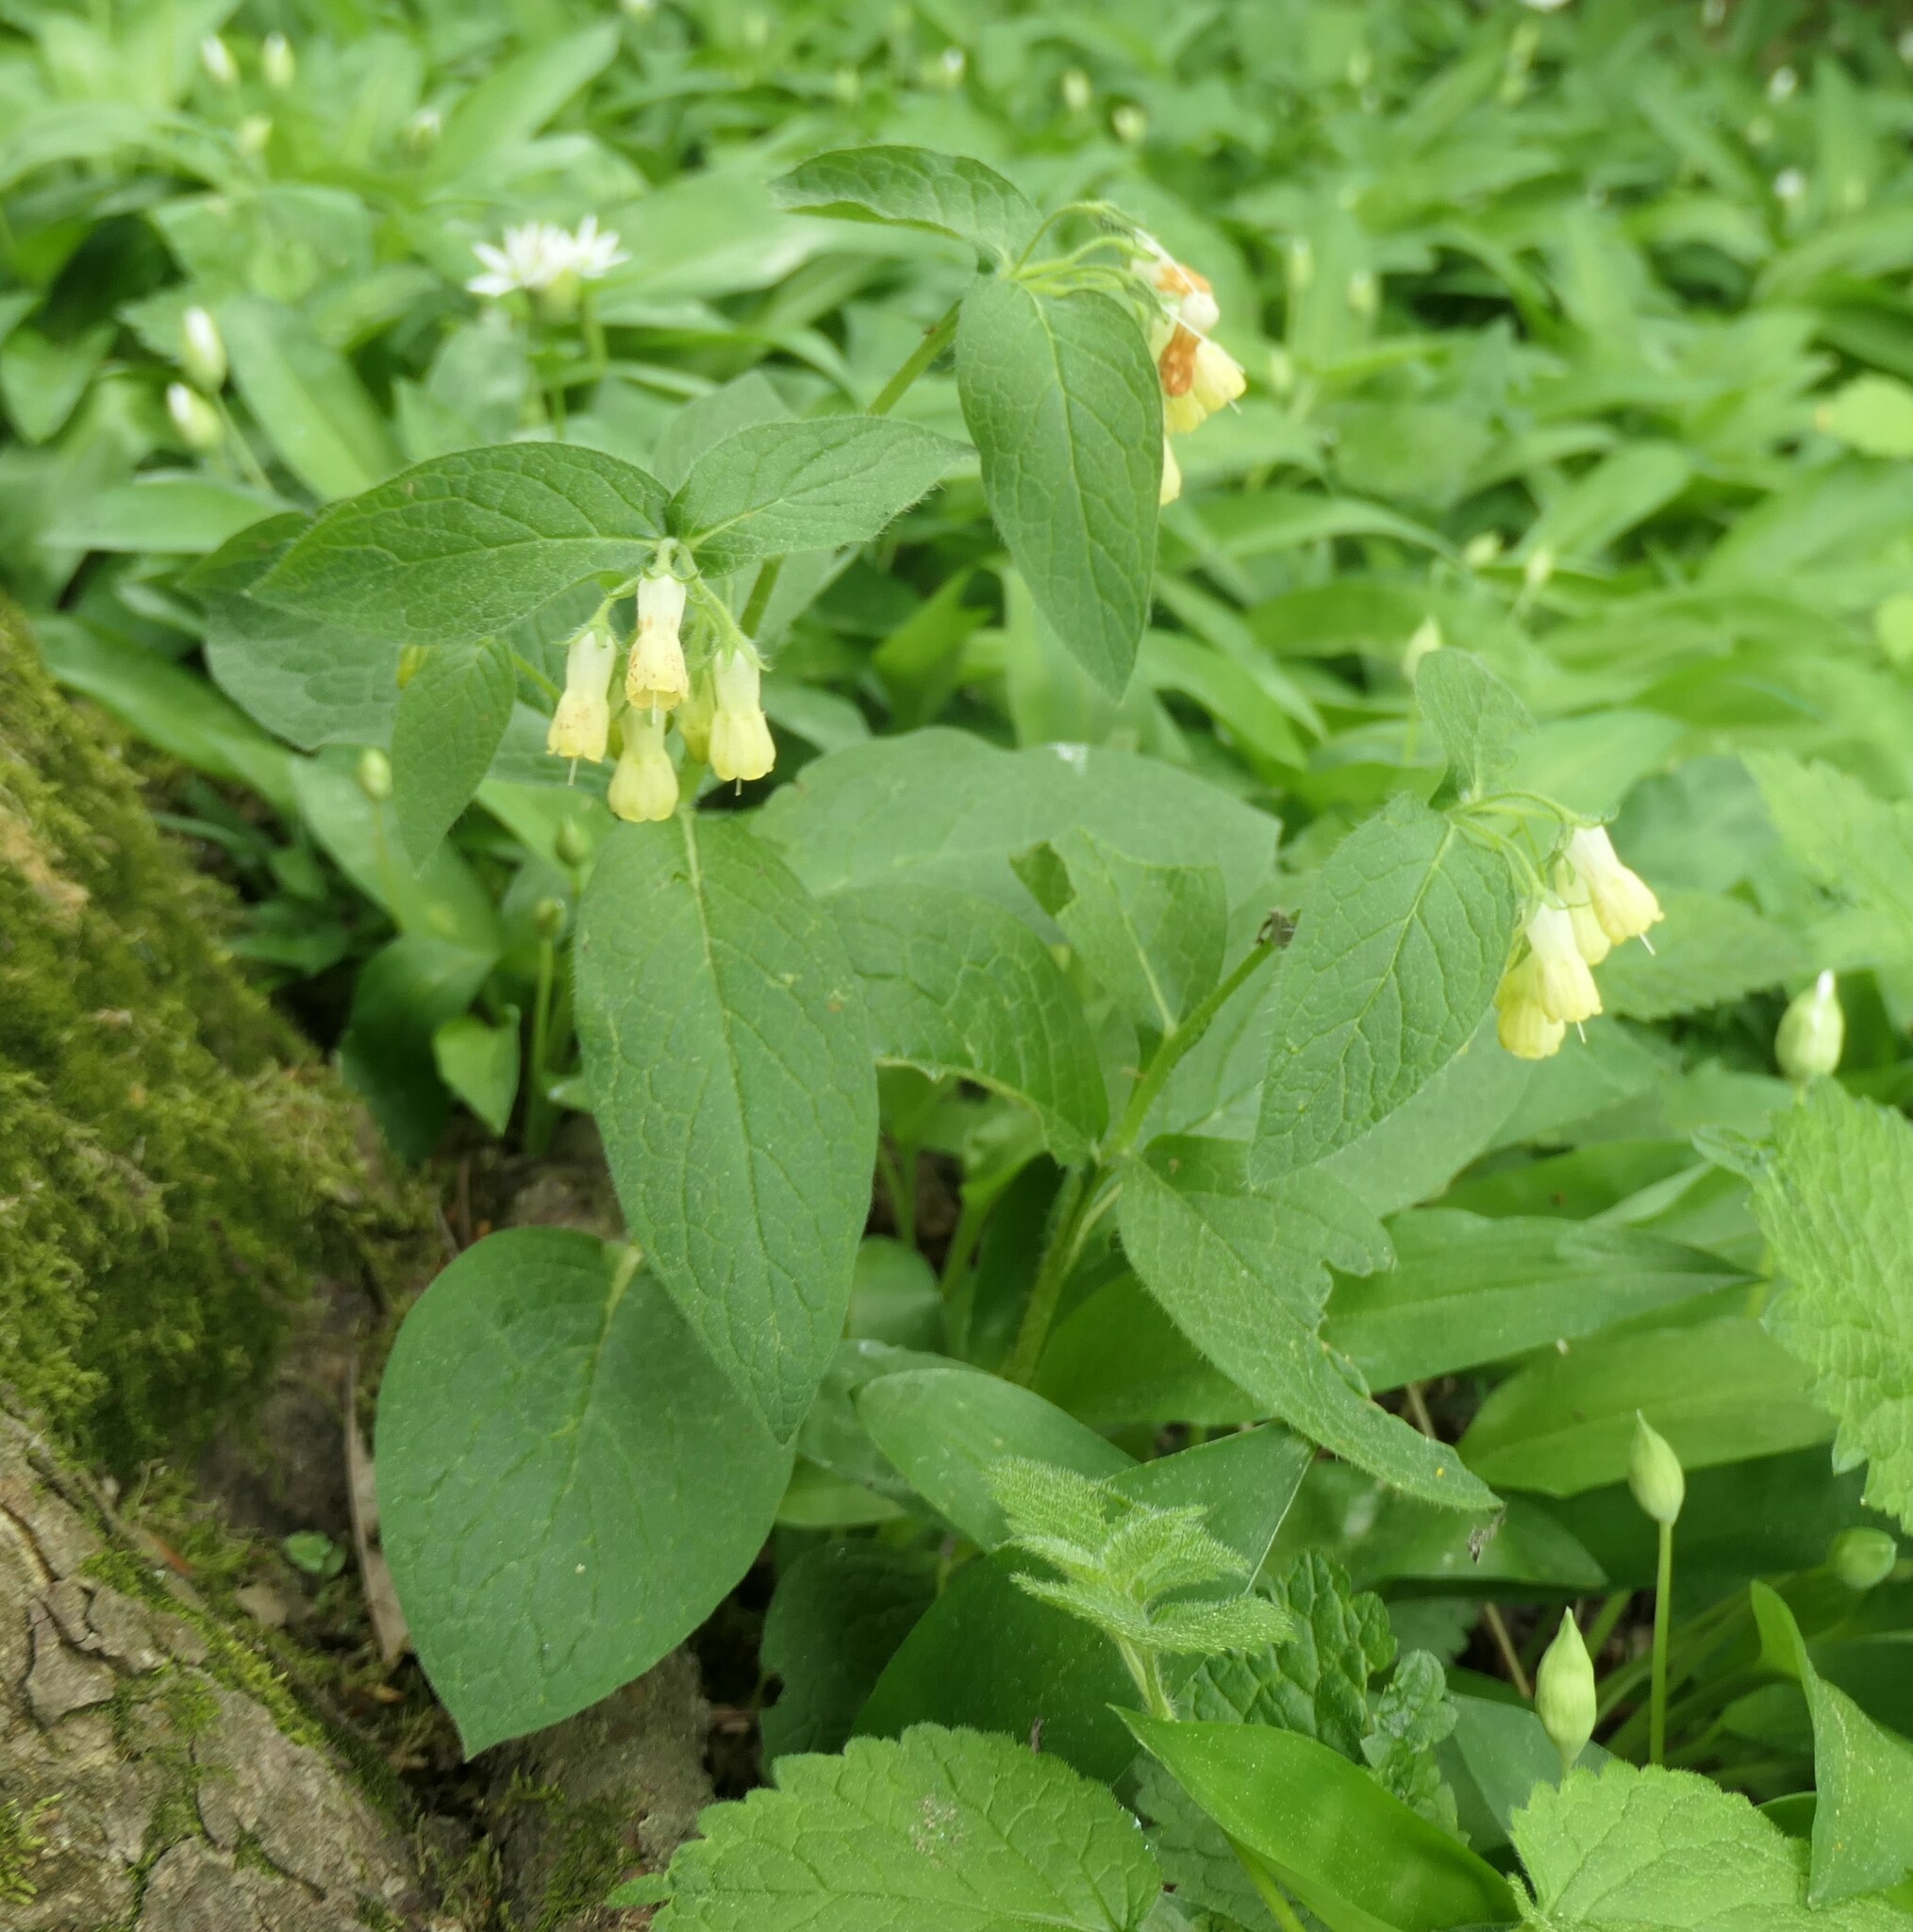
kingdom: Plantae
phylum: Tracheophyta
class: Magnoliopsida
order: Boraginales
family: Boraginaceae
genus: Symphytum
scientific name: Symphytum tuberosum
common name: Tuberous comfrey
